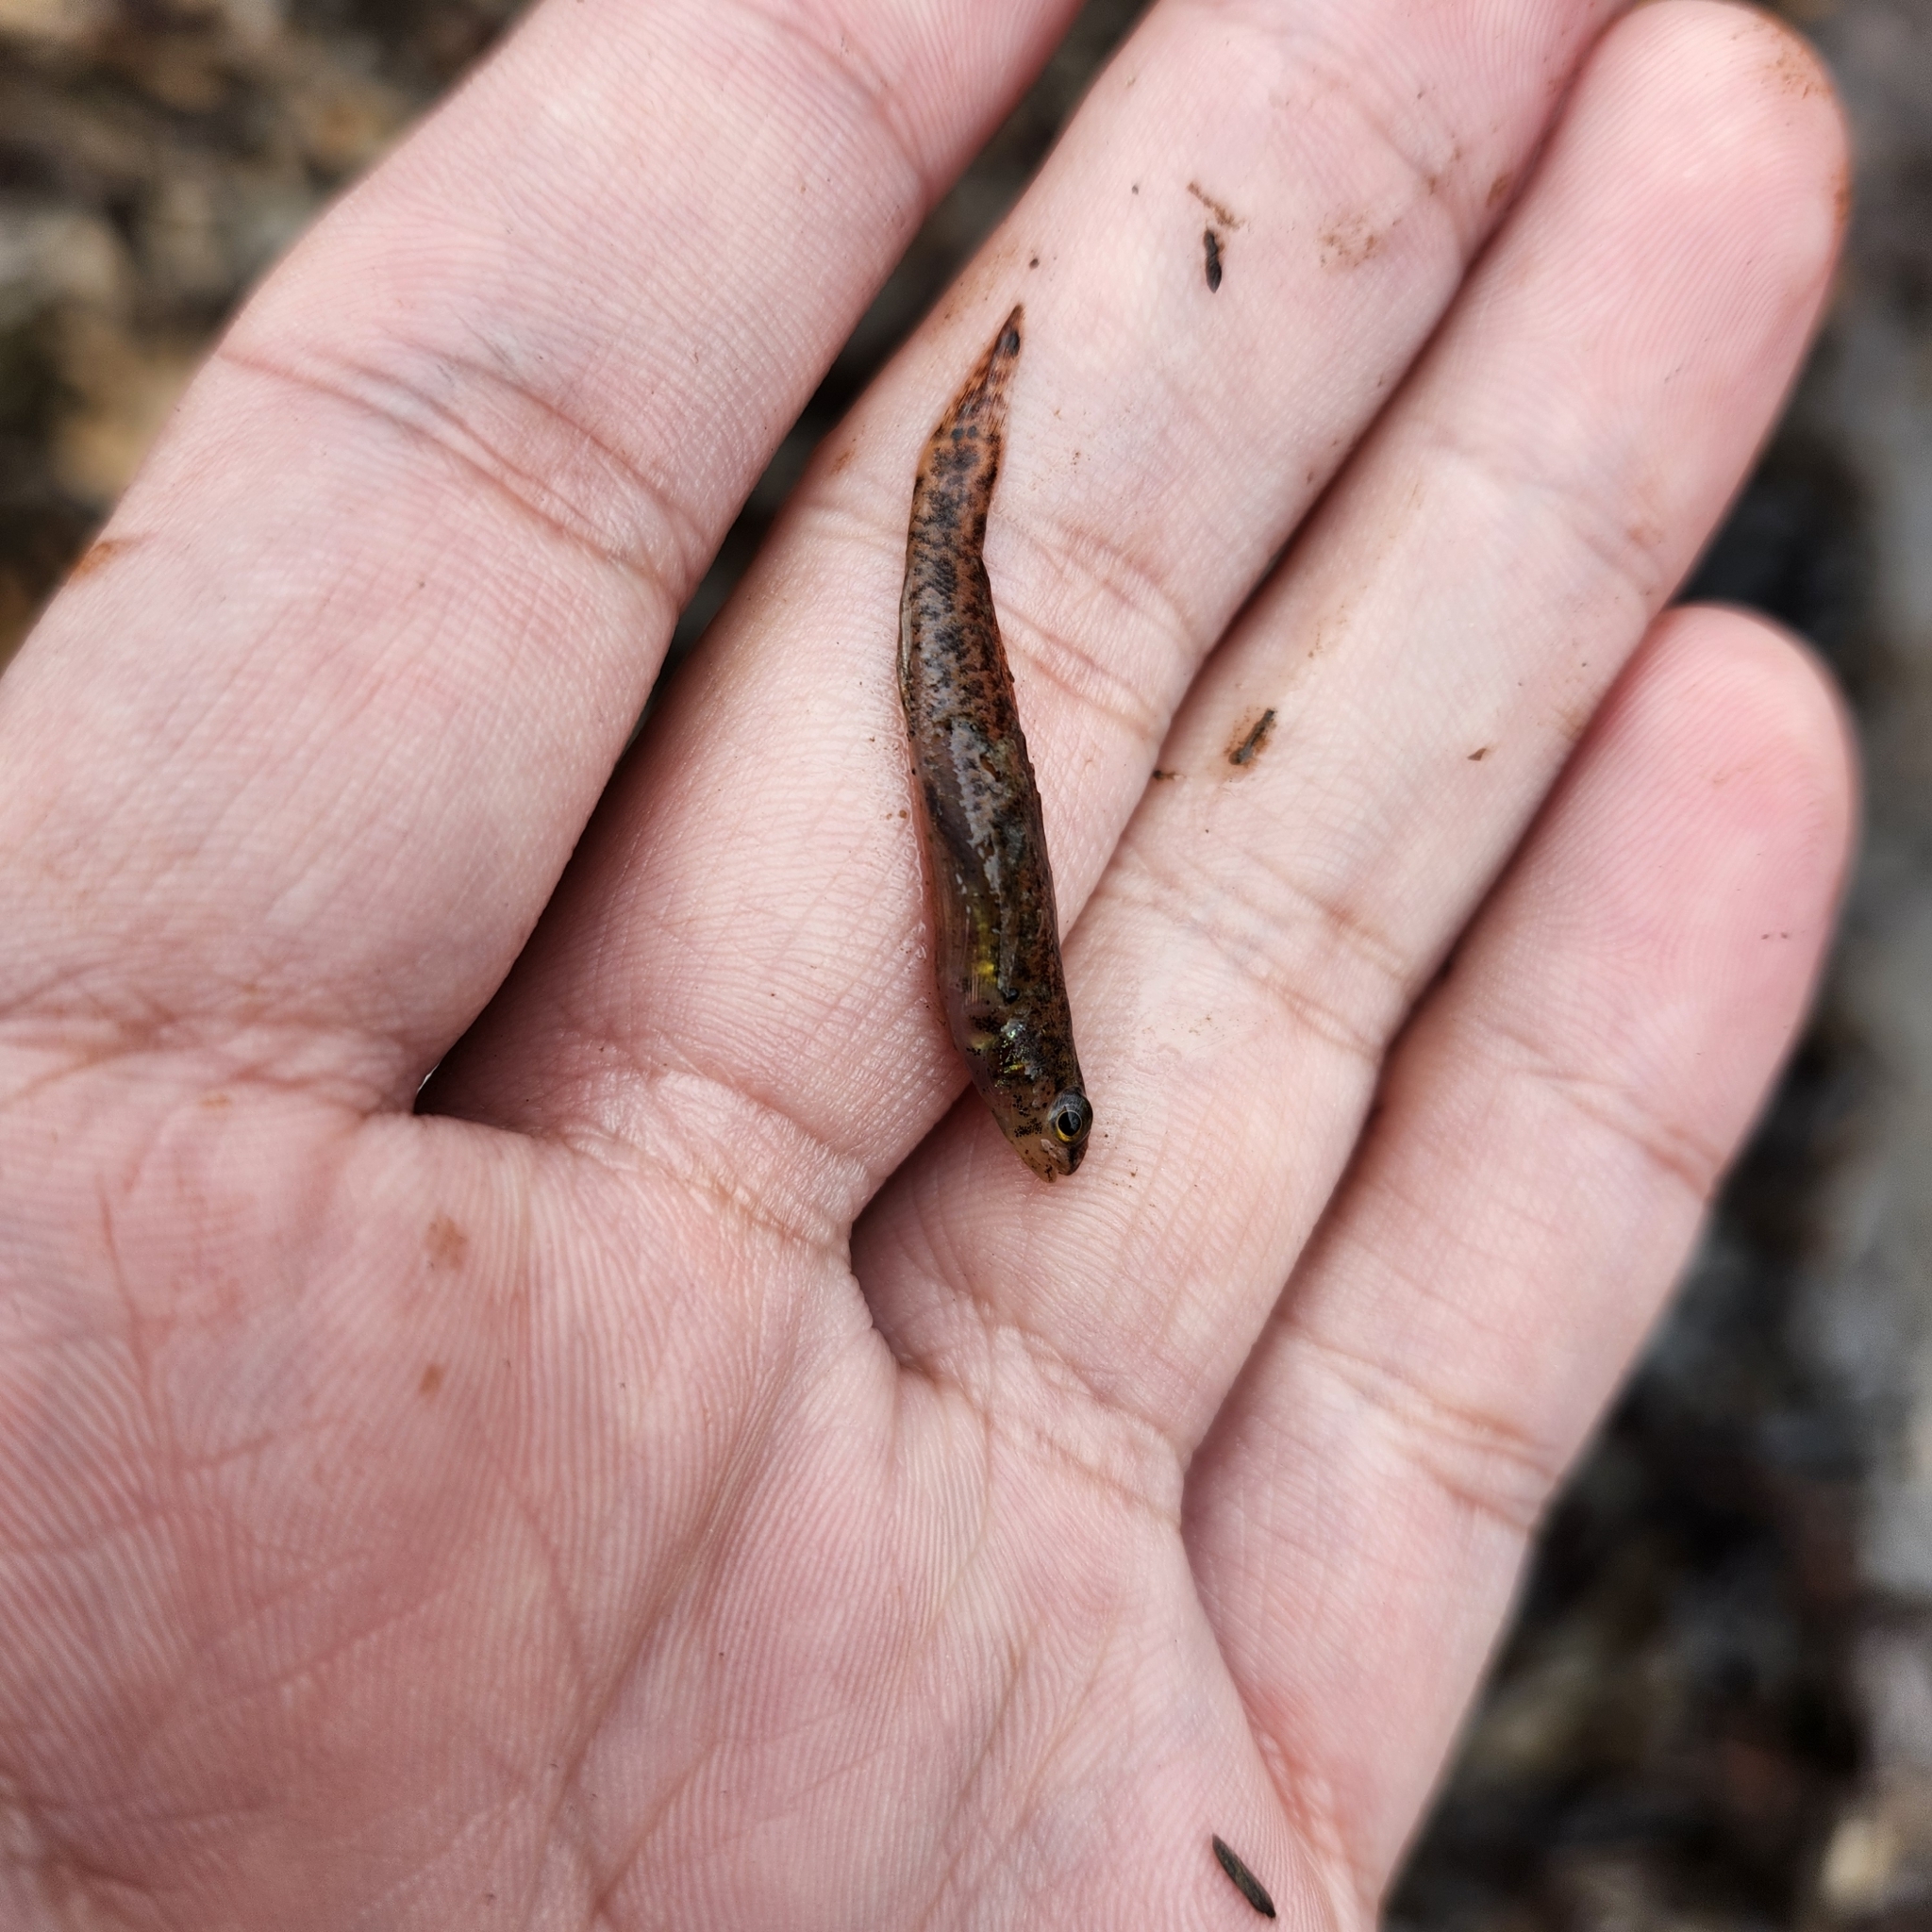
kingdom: Animalia
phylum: Chordata
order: Perciformes
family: Percidae
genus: Etheostoma
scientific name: Etheostoma fusiforme
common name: Swamp darter
